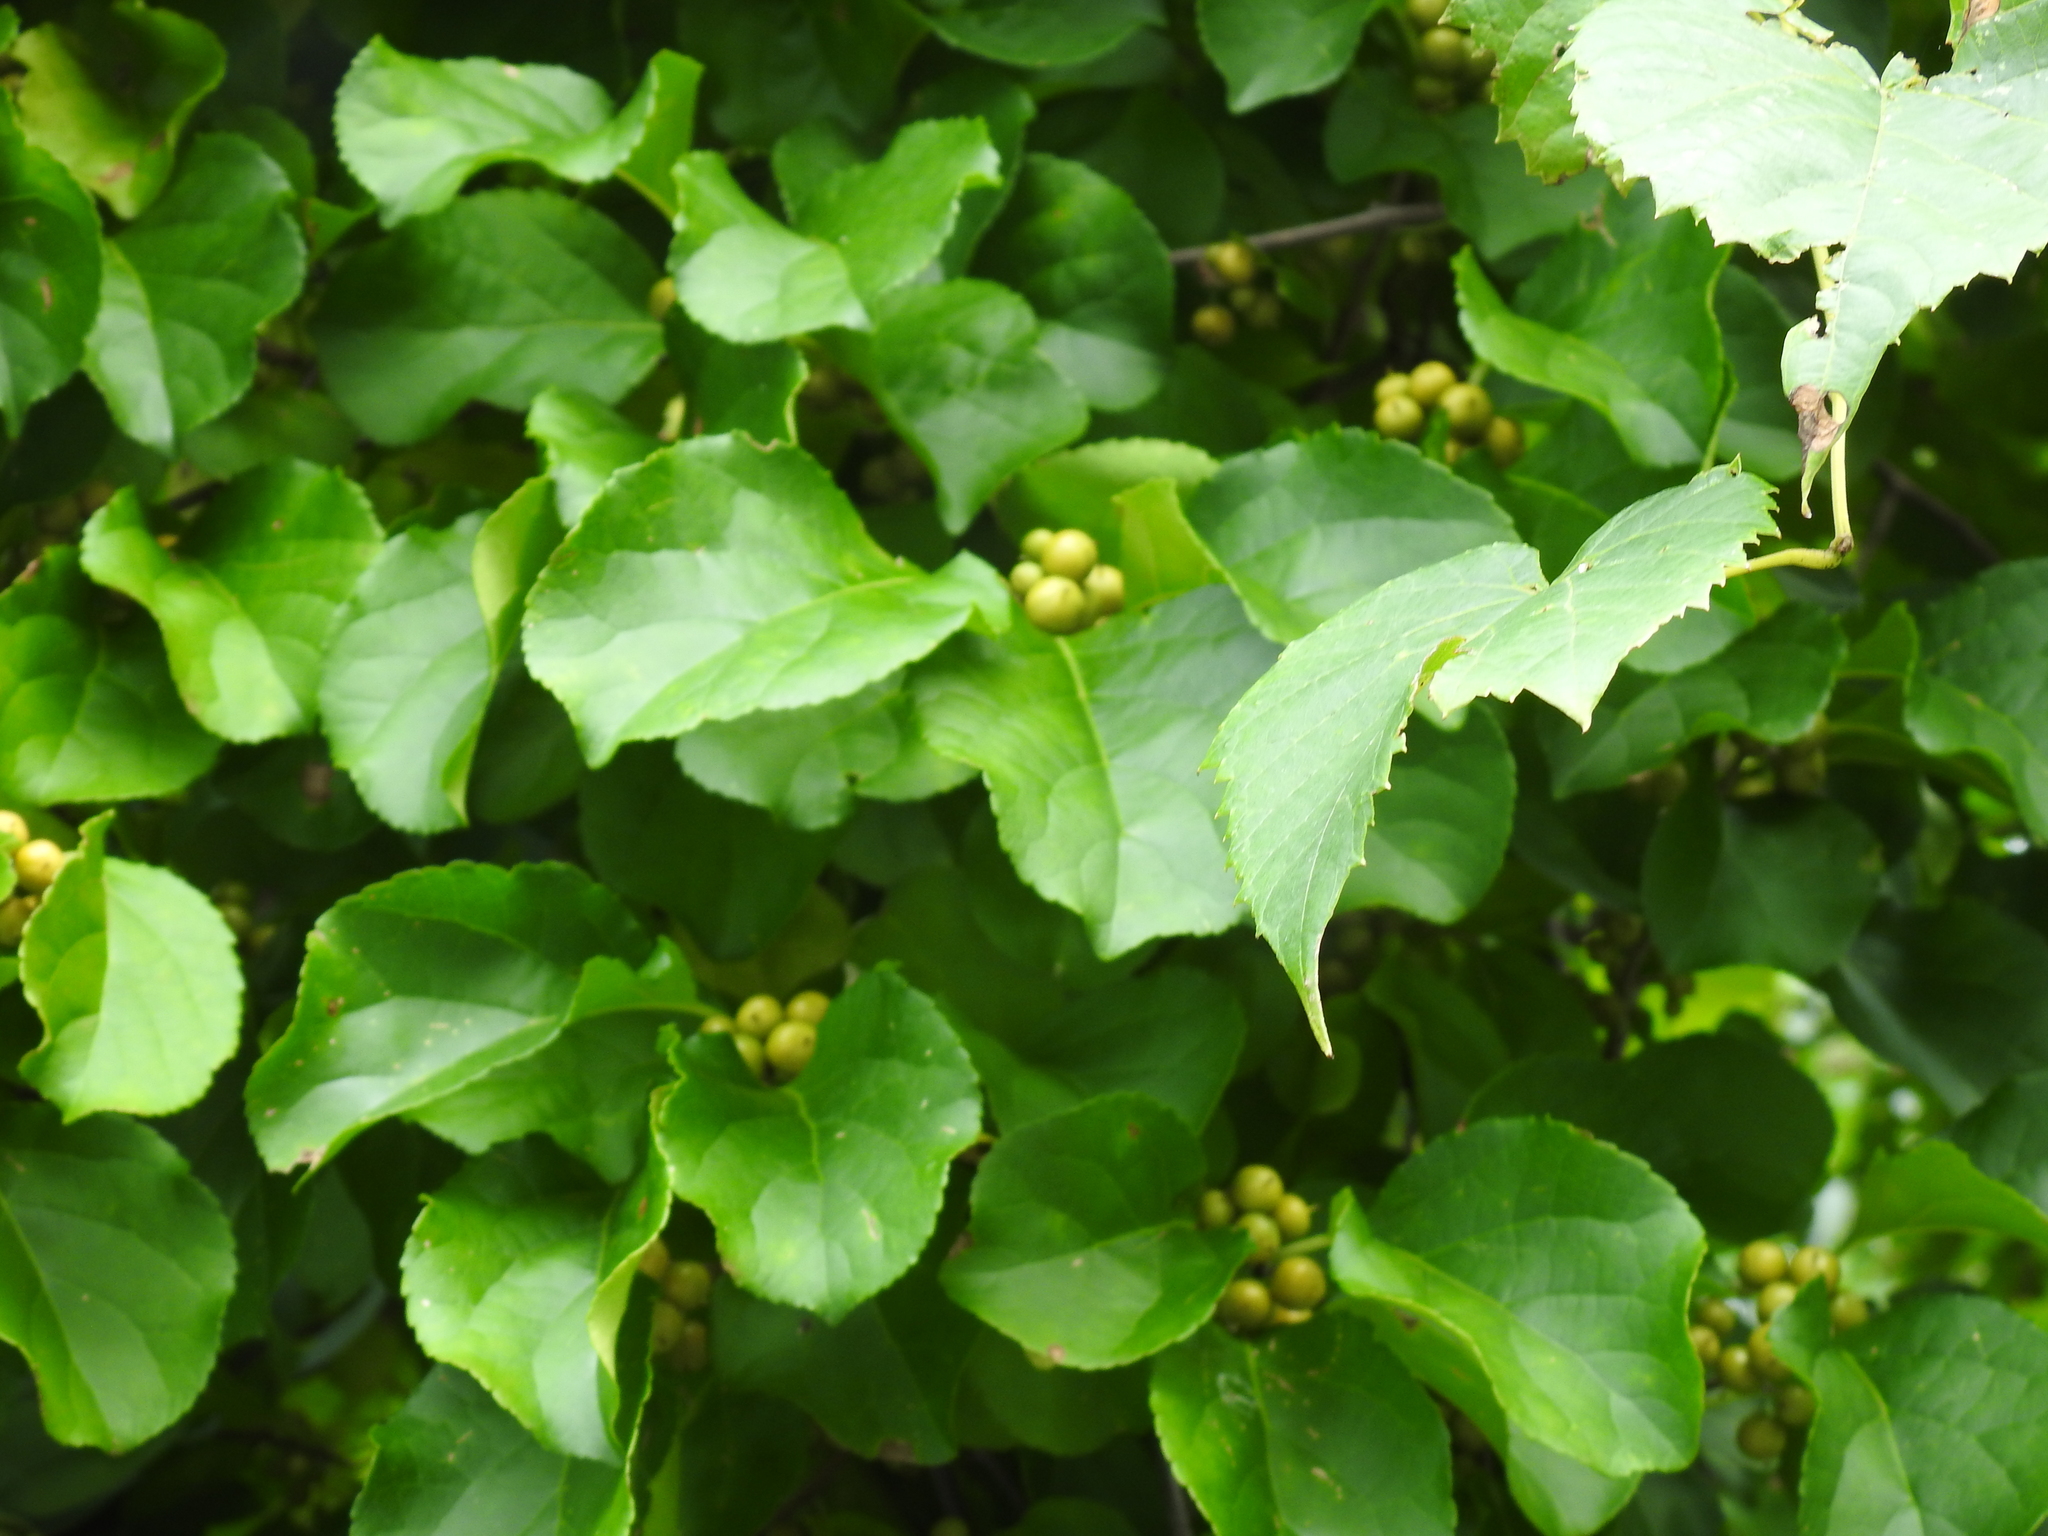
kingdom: Plantae
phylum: Tracheophyta
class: Magnoliopsida
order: Celastrales
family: Celastraceae
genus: Celastrus
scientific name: Celastrus orbiculatus
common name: Oriental bittersweet
